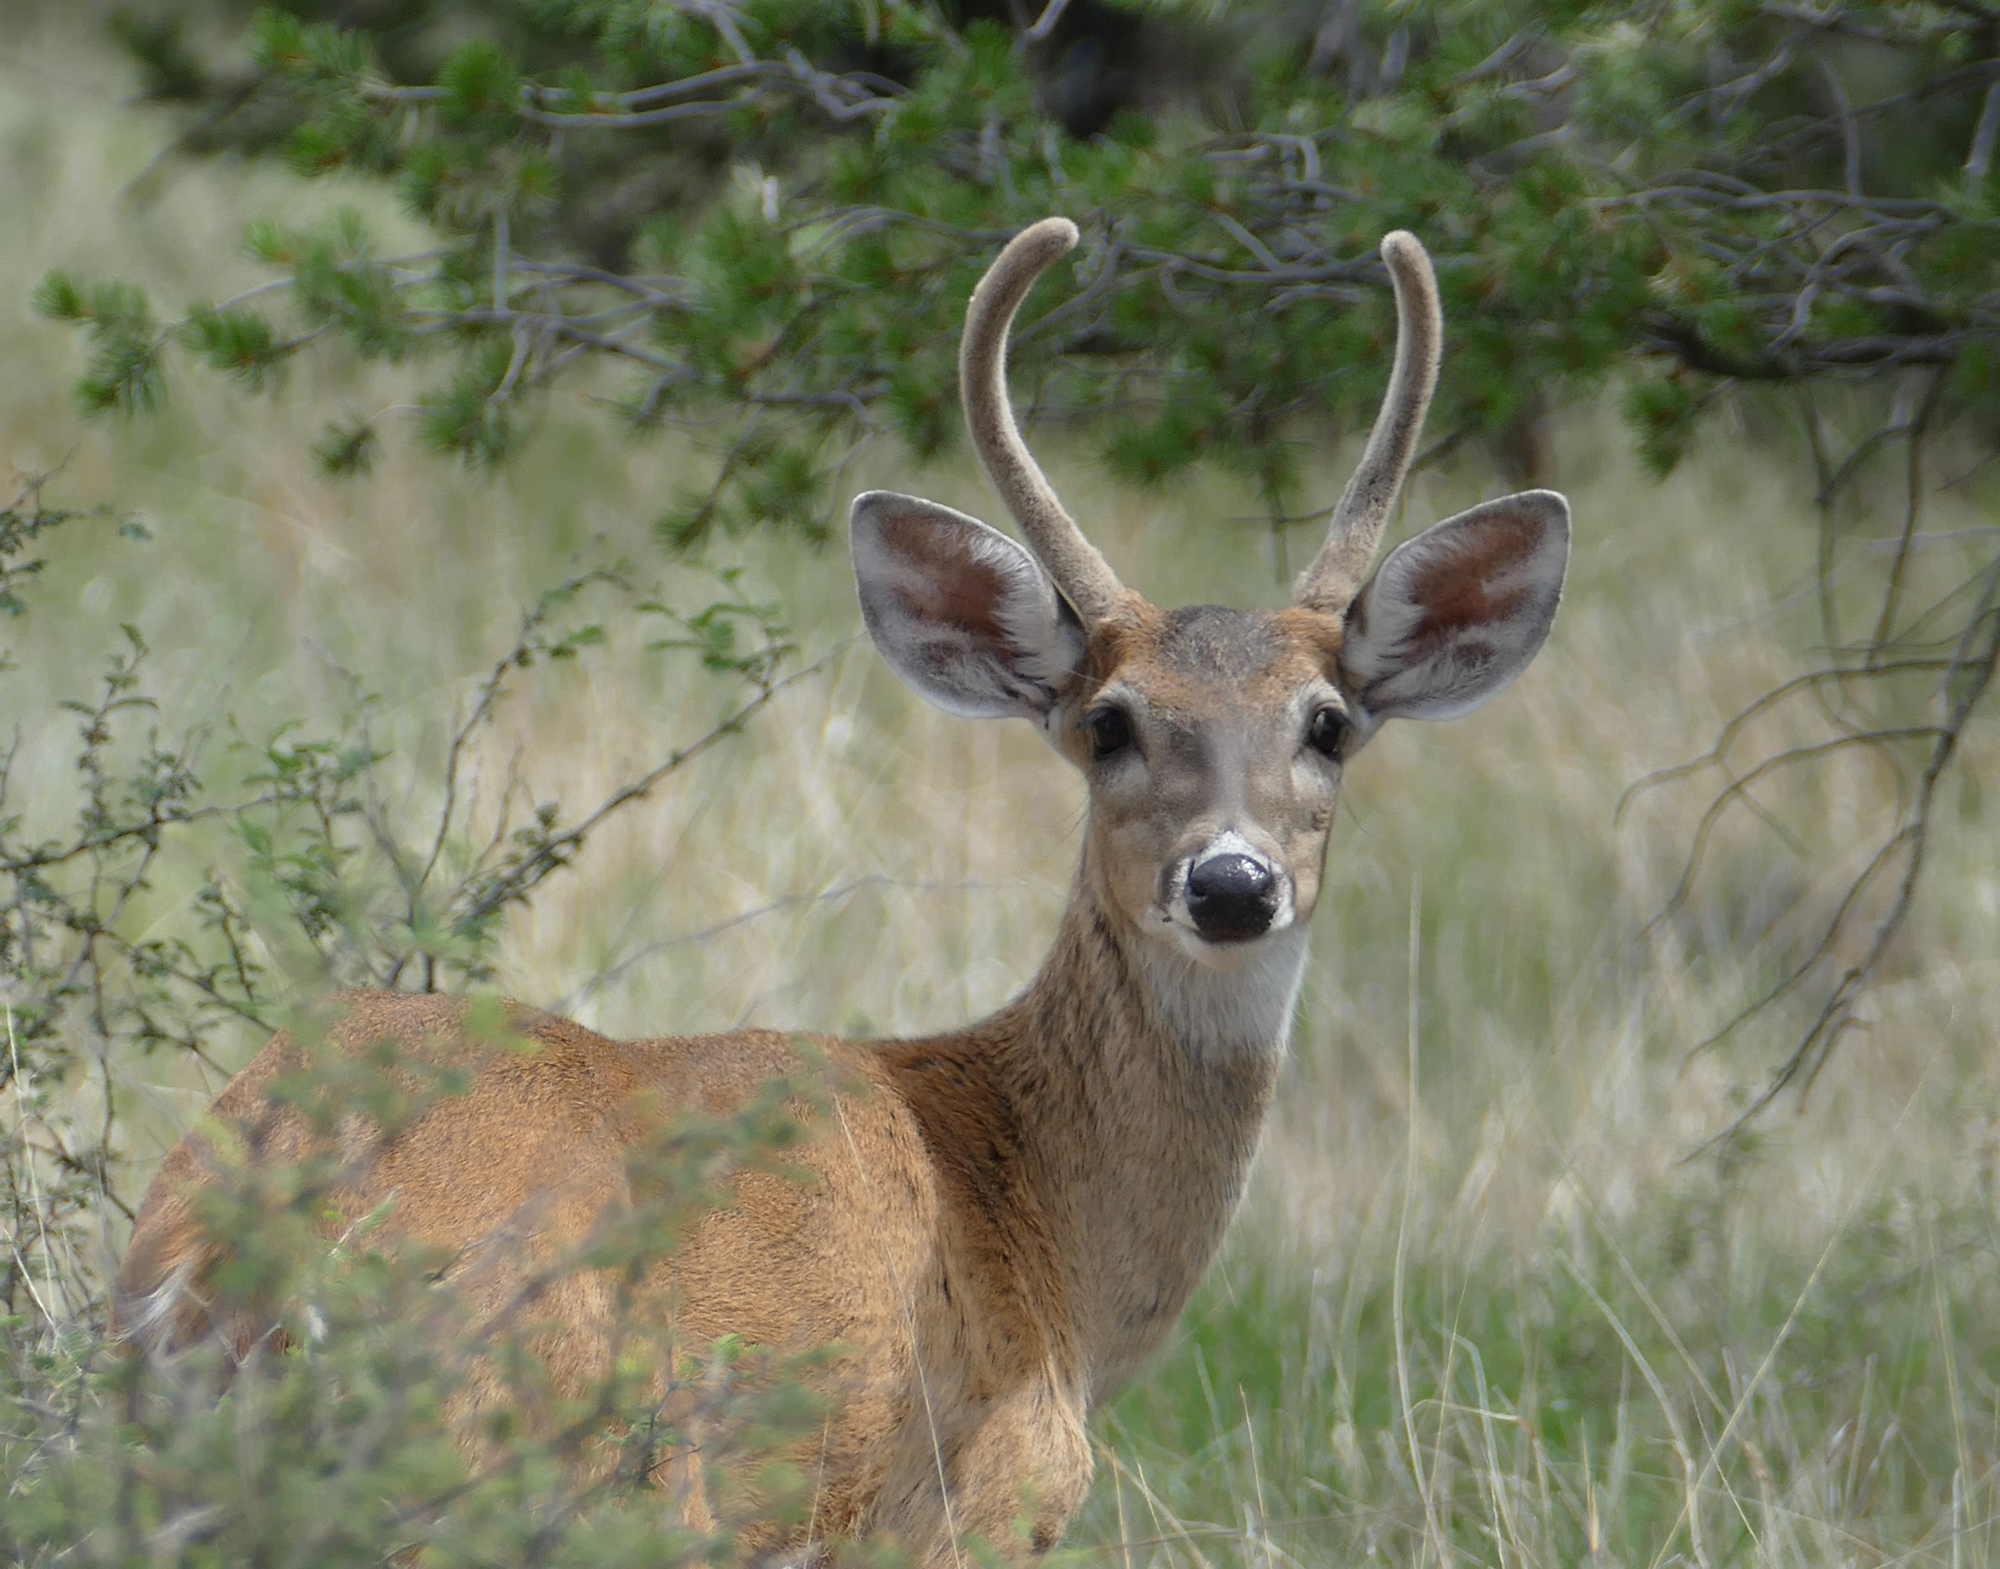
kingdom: Animalia
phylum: Chordata
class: Mammalia
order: Artiodactyla
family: Cervidae
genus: Odocoileus
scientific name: Odocoileus virginianus
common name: White-tailed deer
